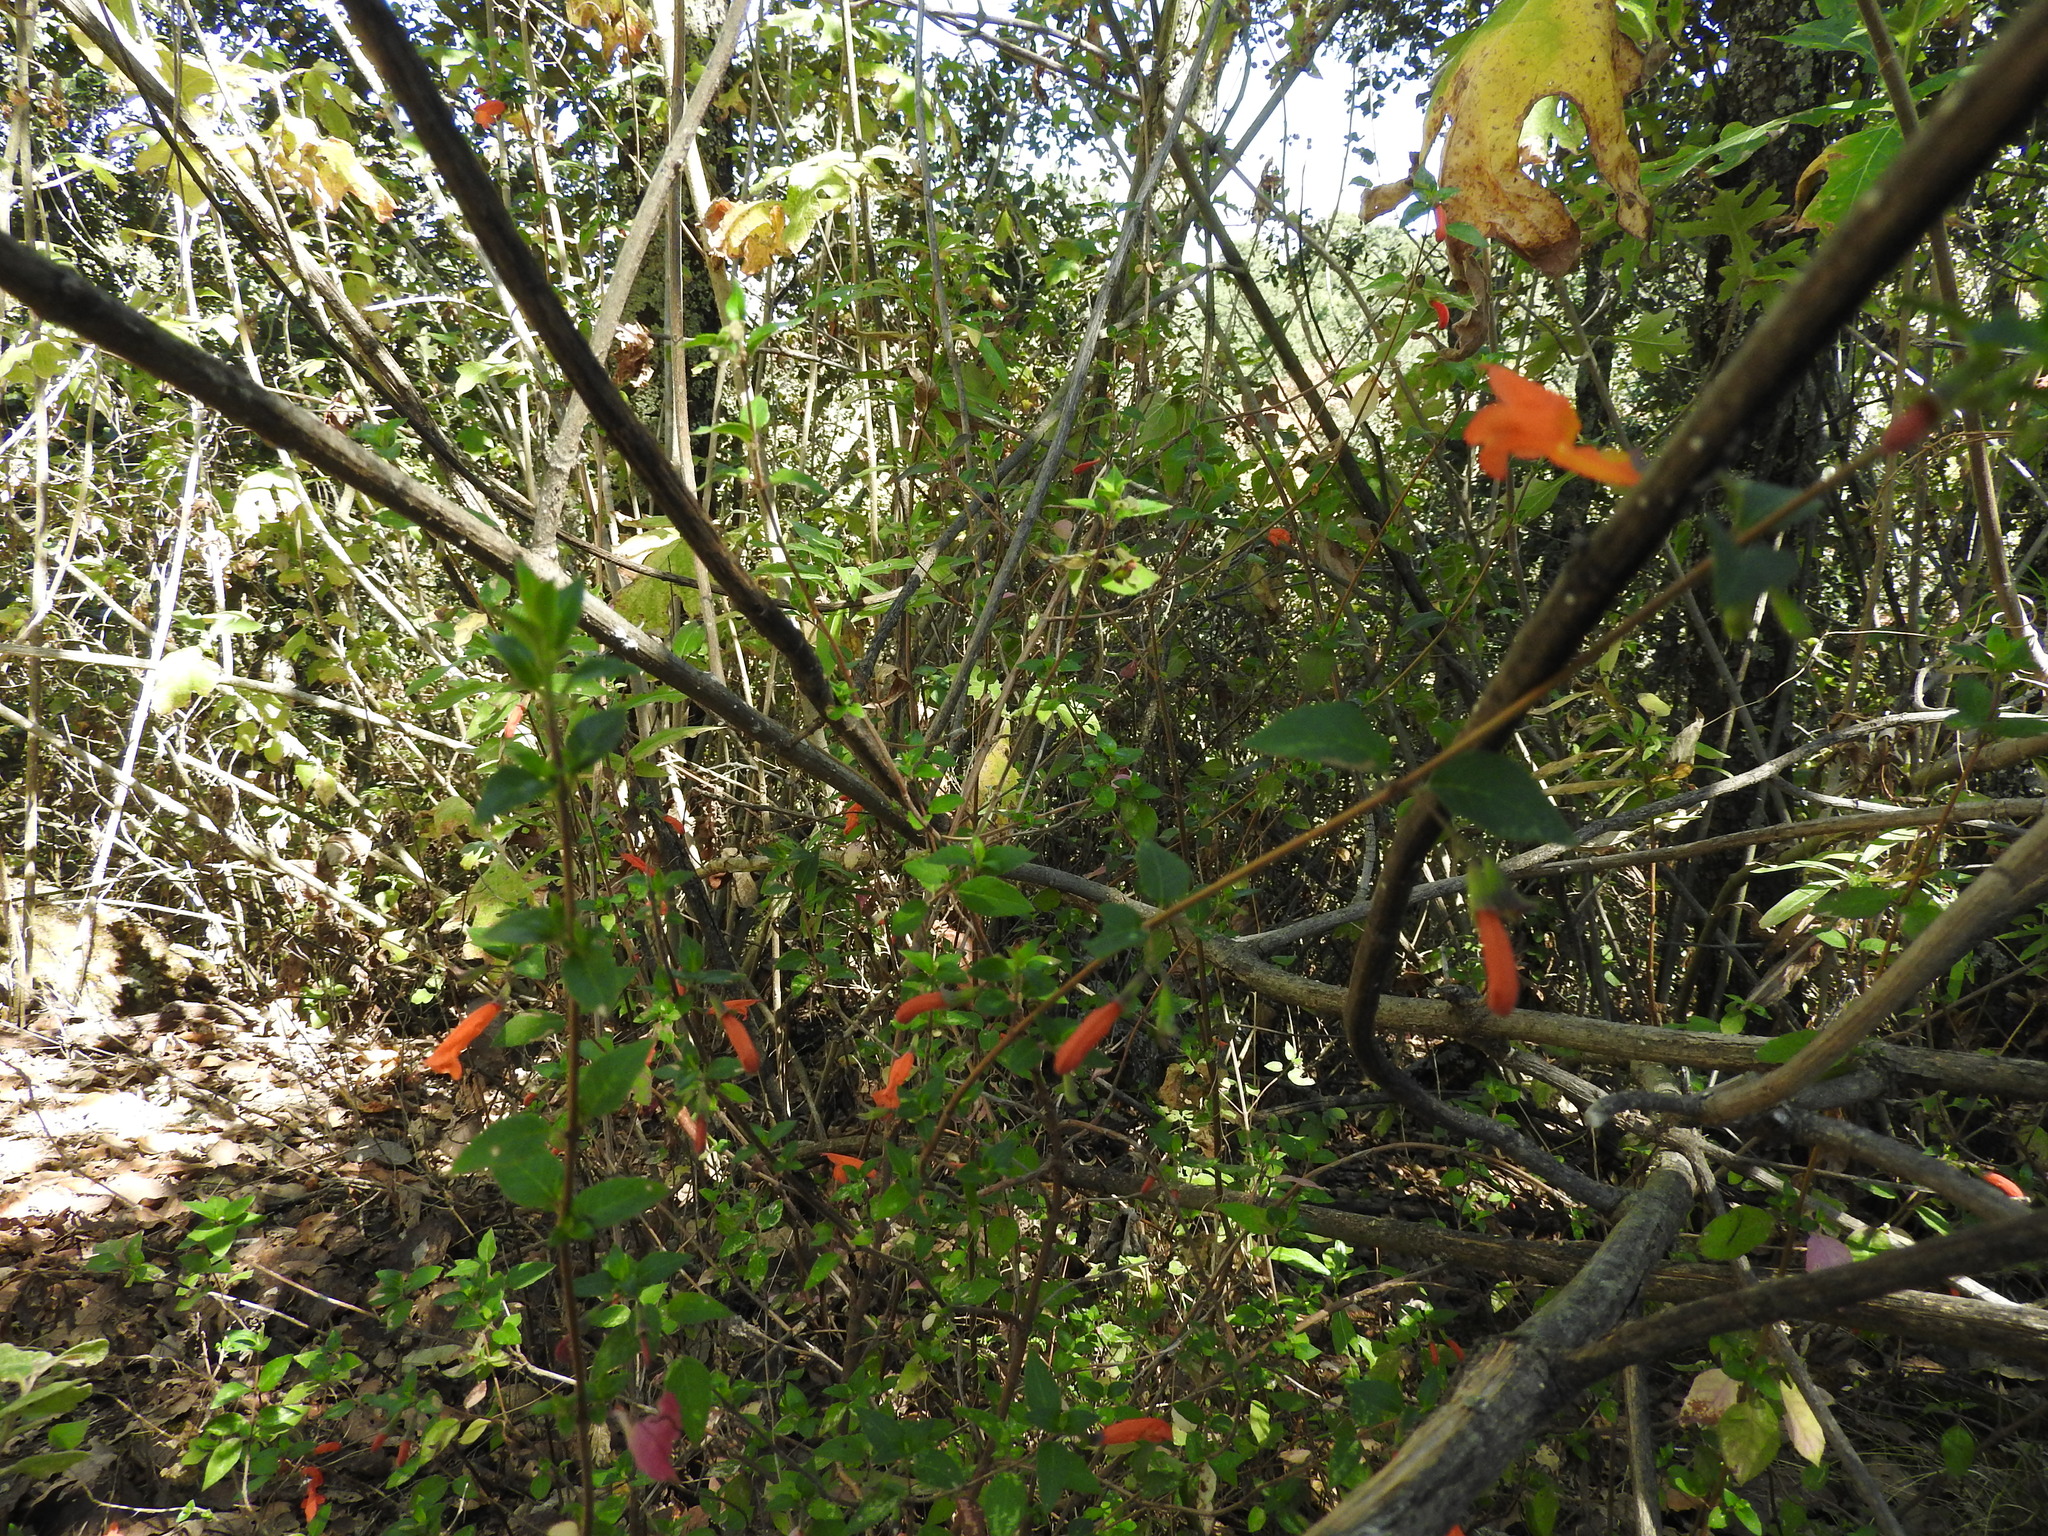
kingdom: Plantae
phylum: Tracheophyta
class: Magnoliopsida
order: Lamiales
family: Lamiaceae
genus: Clinopodium
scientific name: Clinopodium macrostemum
